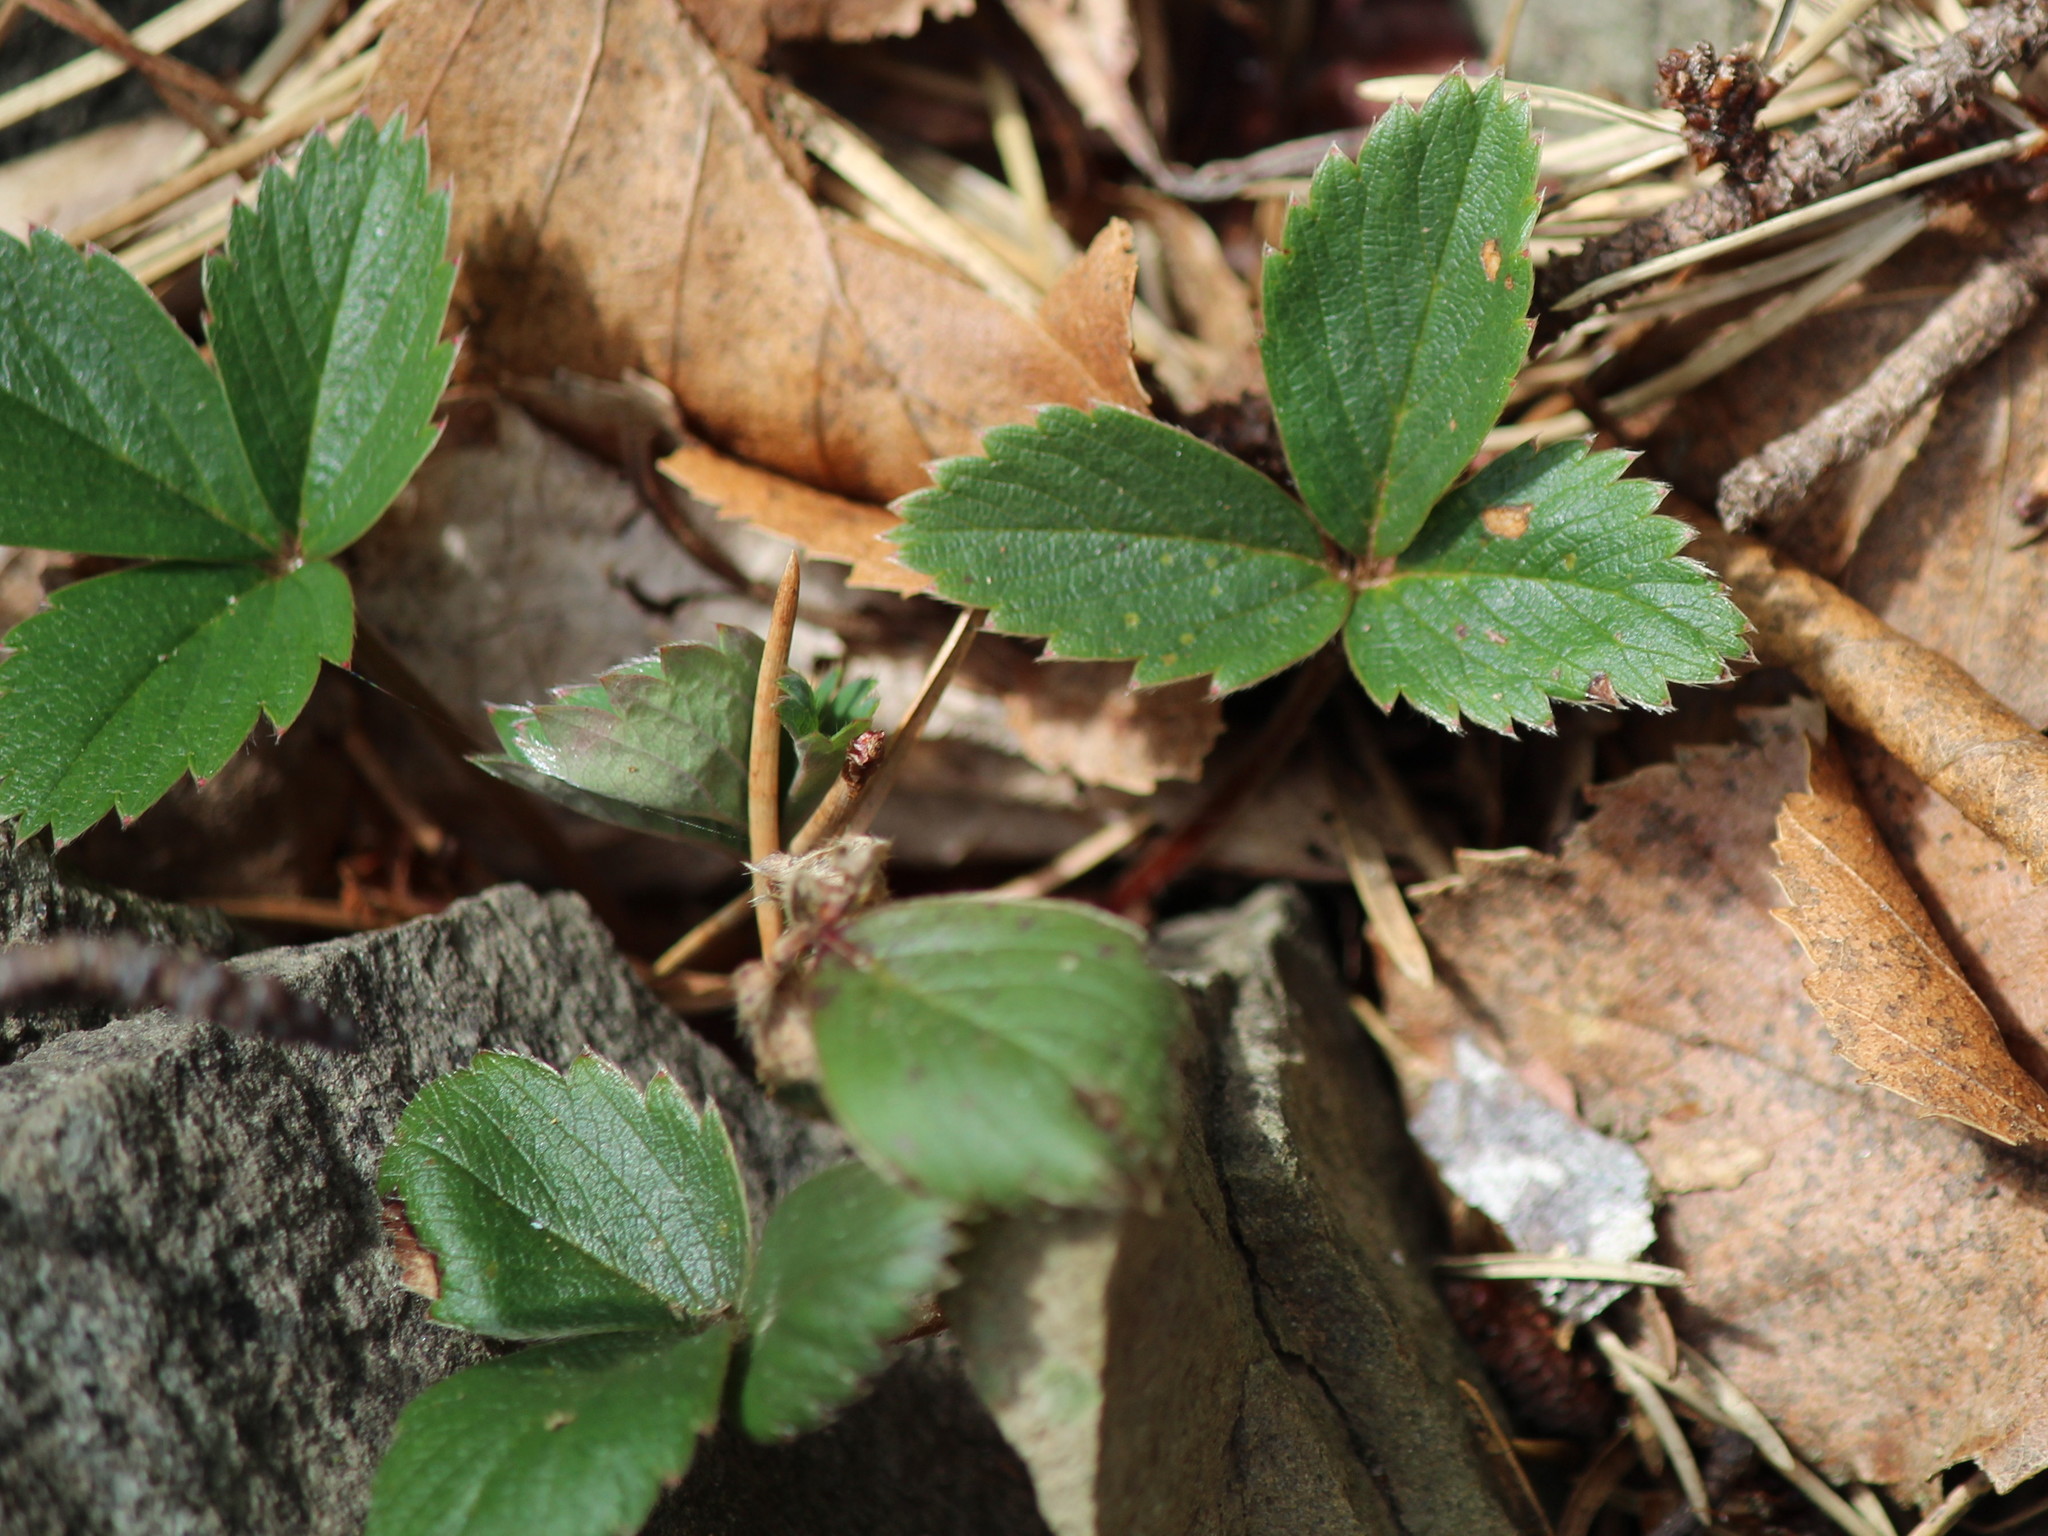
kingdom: Plantae
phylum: Tracheophyta
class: Magnoliopsida
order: Rosales
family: Rosaceae
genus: Fragaria
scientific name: Fragaria virginiana
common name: Thickleaved wild strawberry
